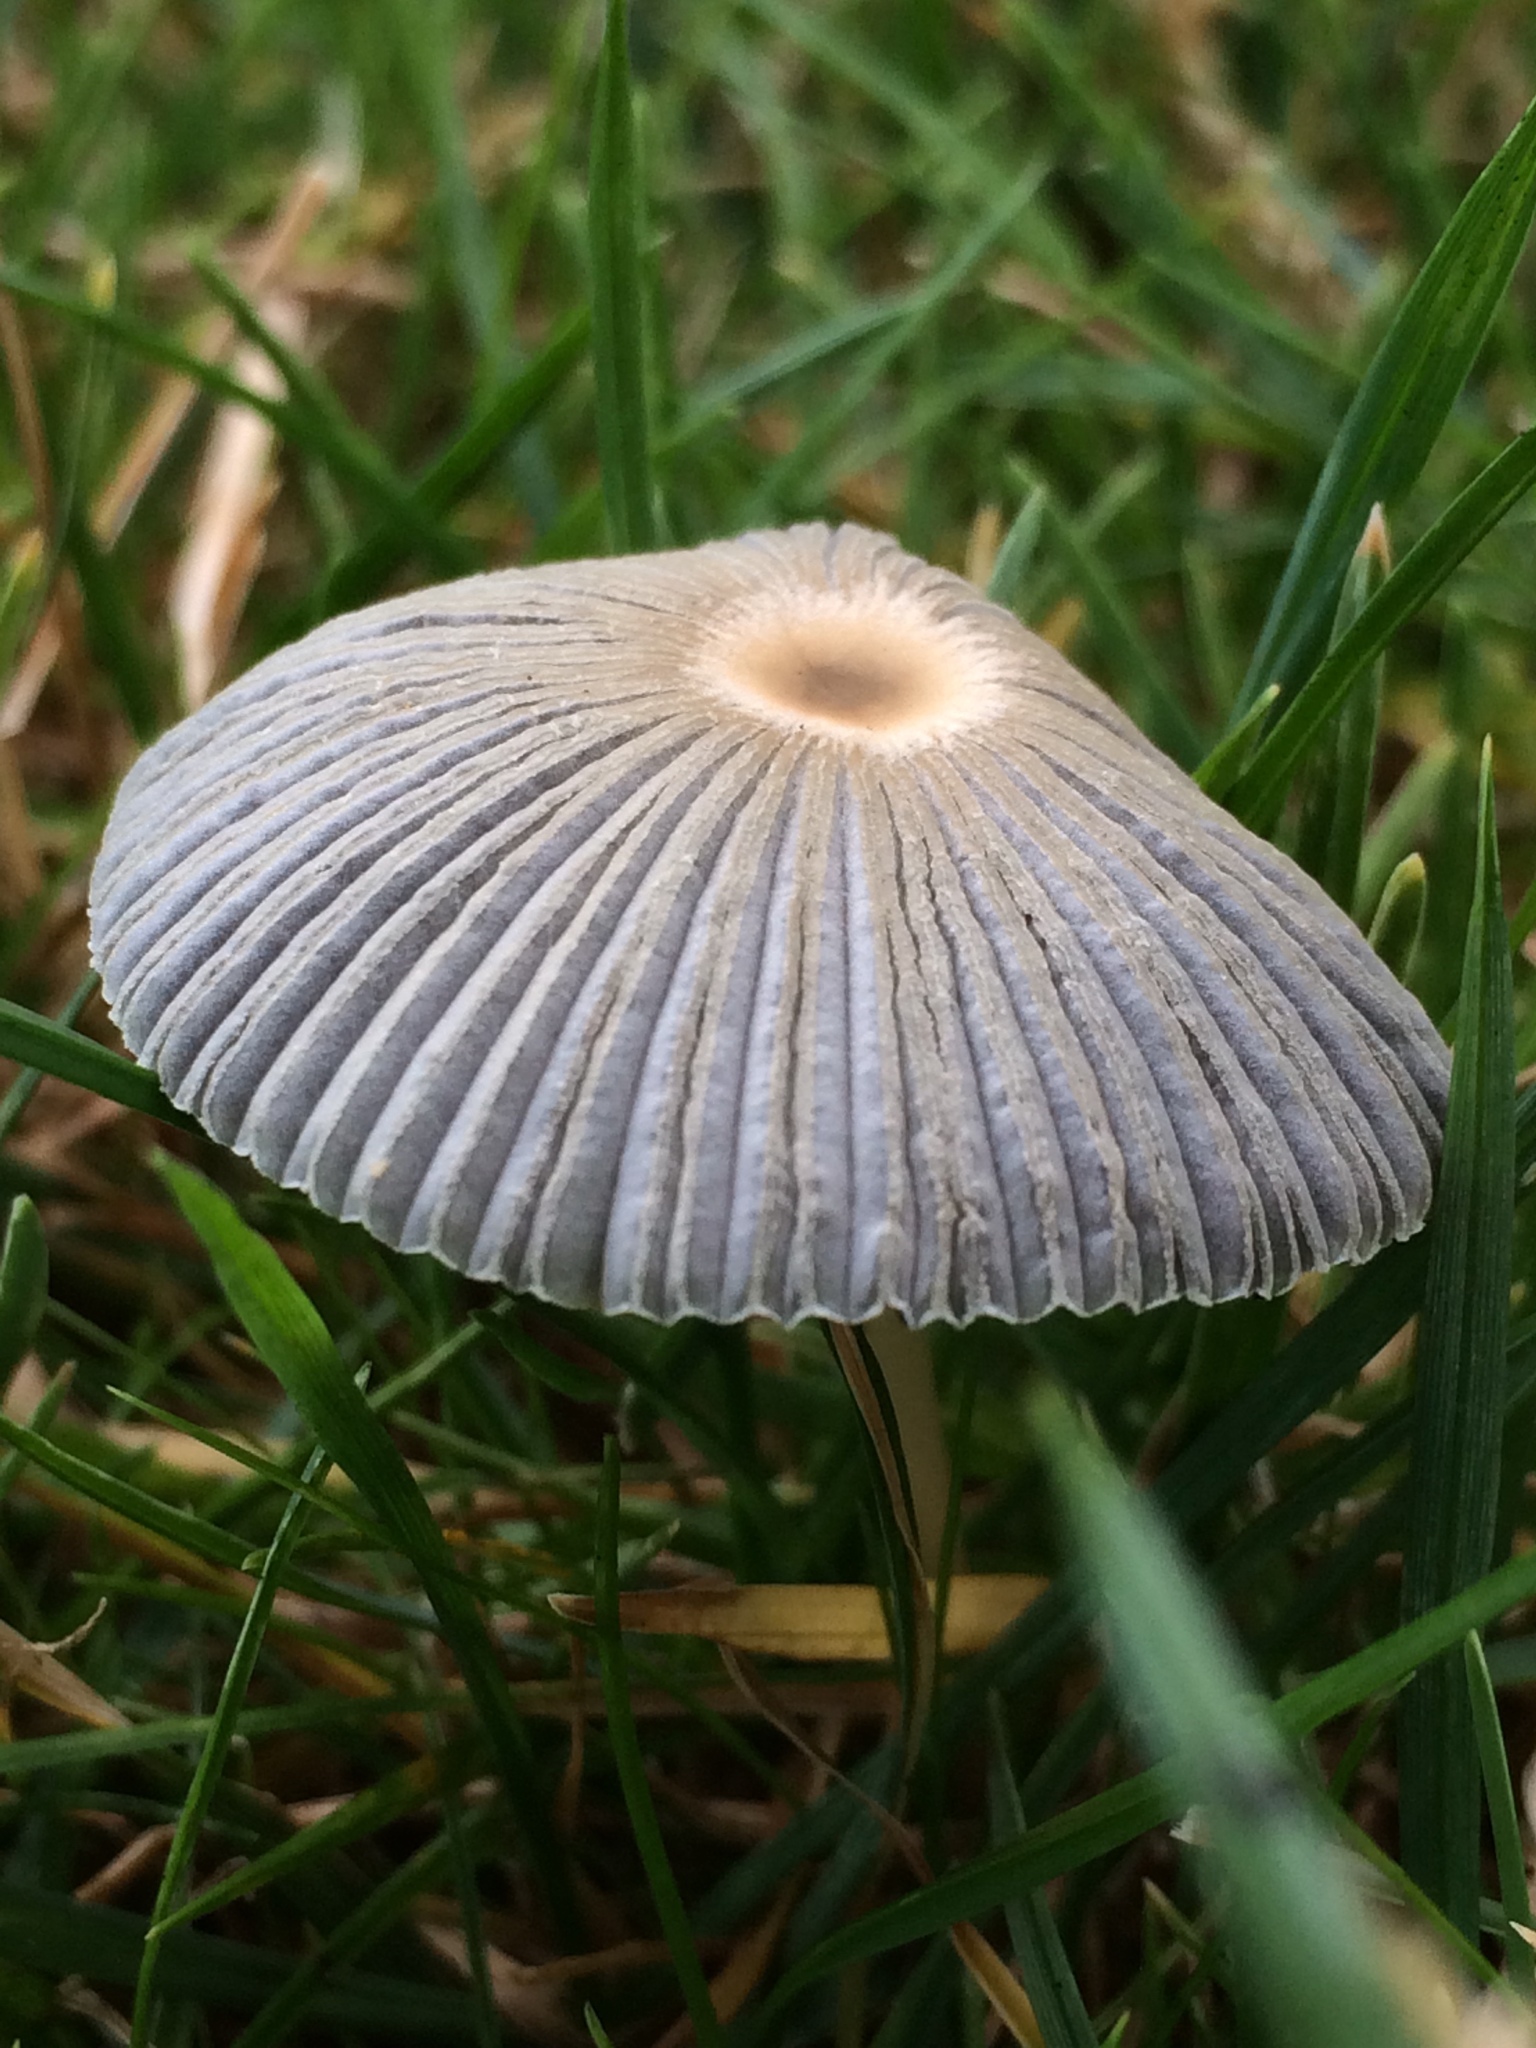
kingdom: Fungi
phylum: Basidiomycota
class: Agaricomycetes
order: Agaricales
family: Psathyrellaceae
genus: Parasola
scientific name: Parasola plicatilis
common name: Pleated inkcap
